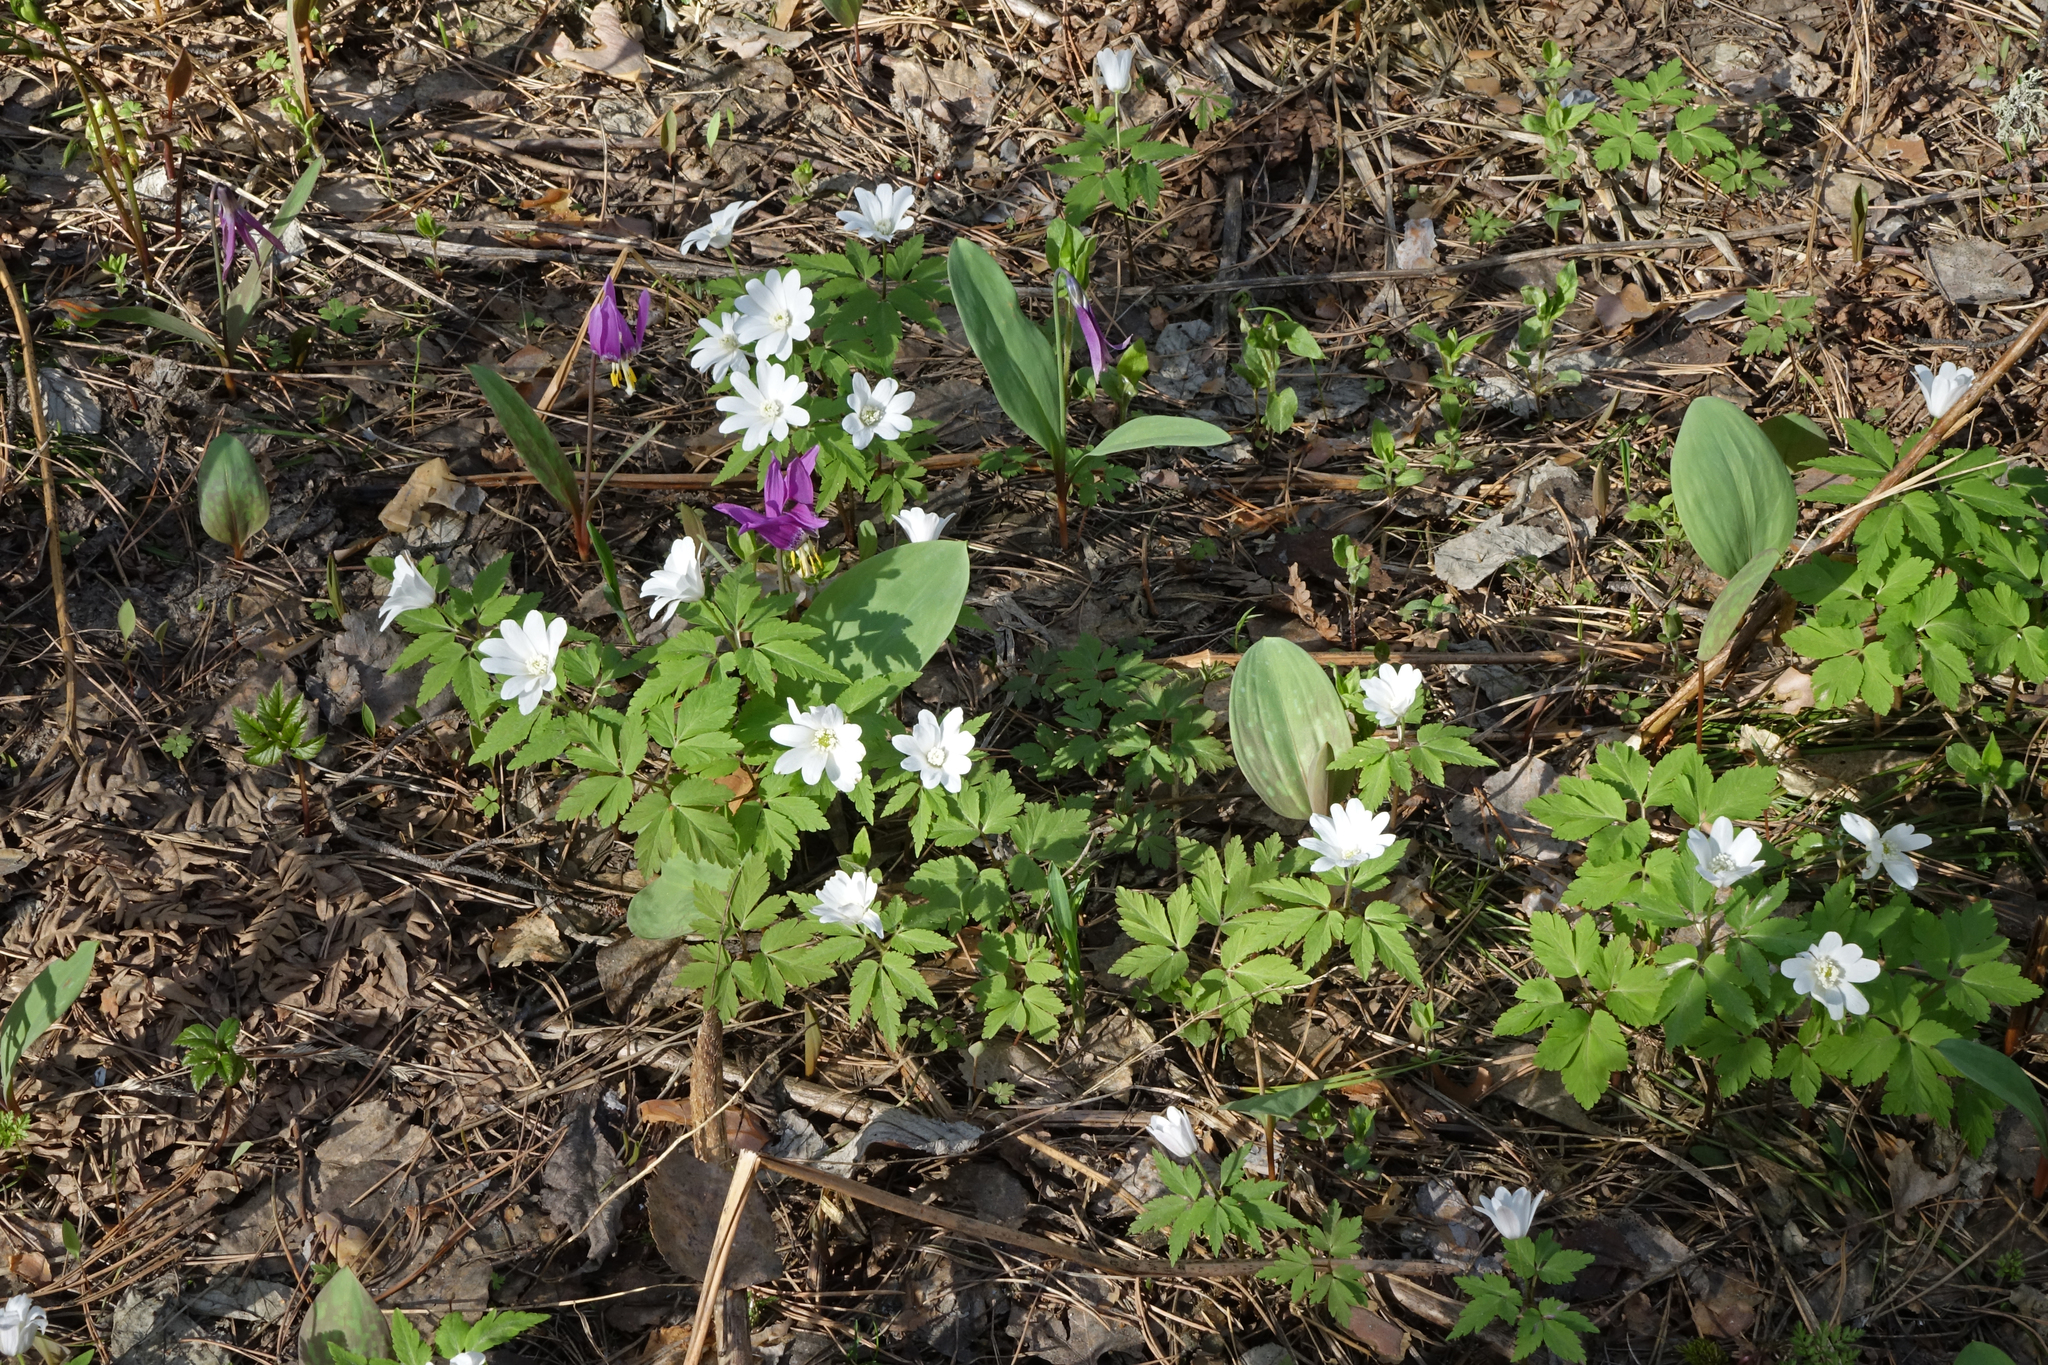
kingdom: Plantae
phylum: Tracheophyta
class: Magnoliopsida
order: Ranunculales
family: Ranunculaceae
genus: Anemone
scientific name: Anemone altaica
